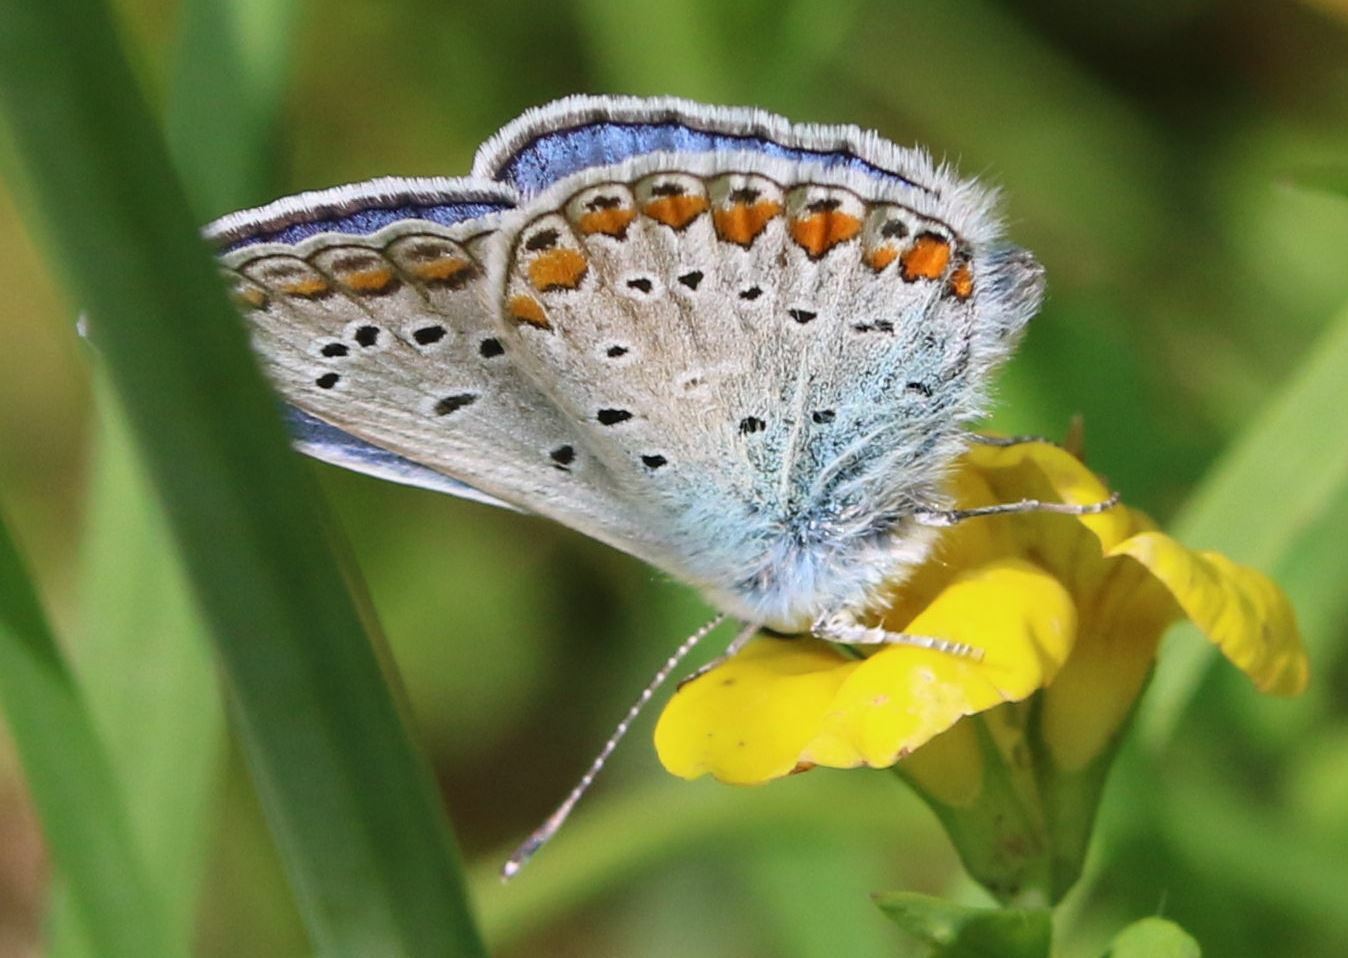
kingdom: Animalia
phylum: Arthropoda
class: Insecta
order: Lepidoptera
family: Lycaenidae
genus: Polyommatus
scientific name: Polyommatus icarus
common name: Common blue
